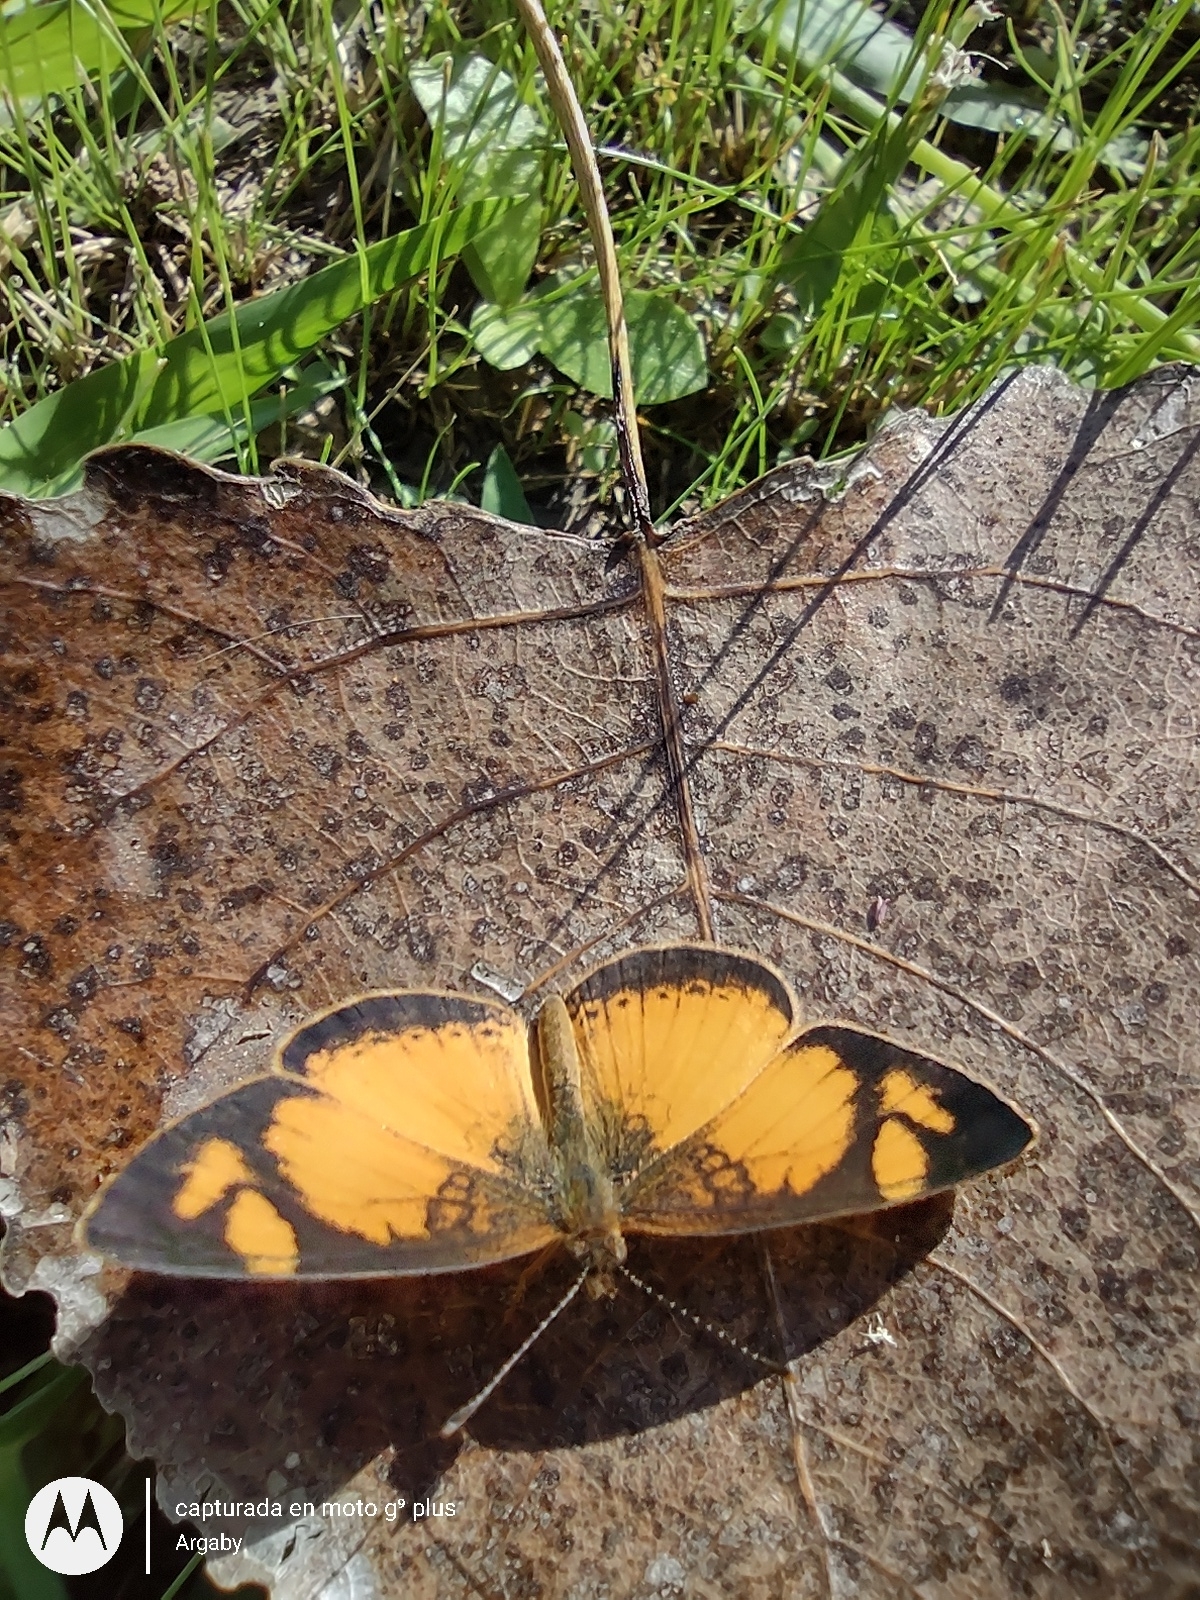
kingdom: Animalia
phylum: Arthropoda
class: Insecta
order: Lepidoptera
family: Nymphalidae
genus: Tegosa
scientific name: Tegosa claudina
